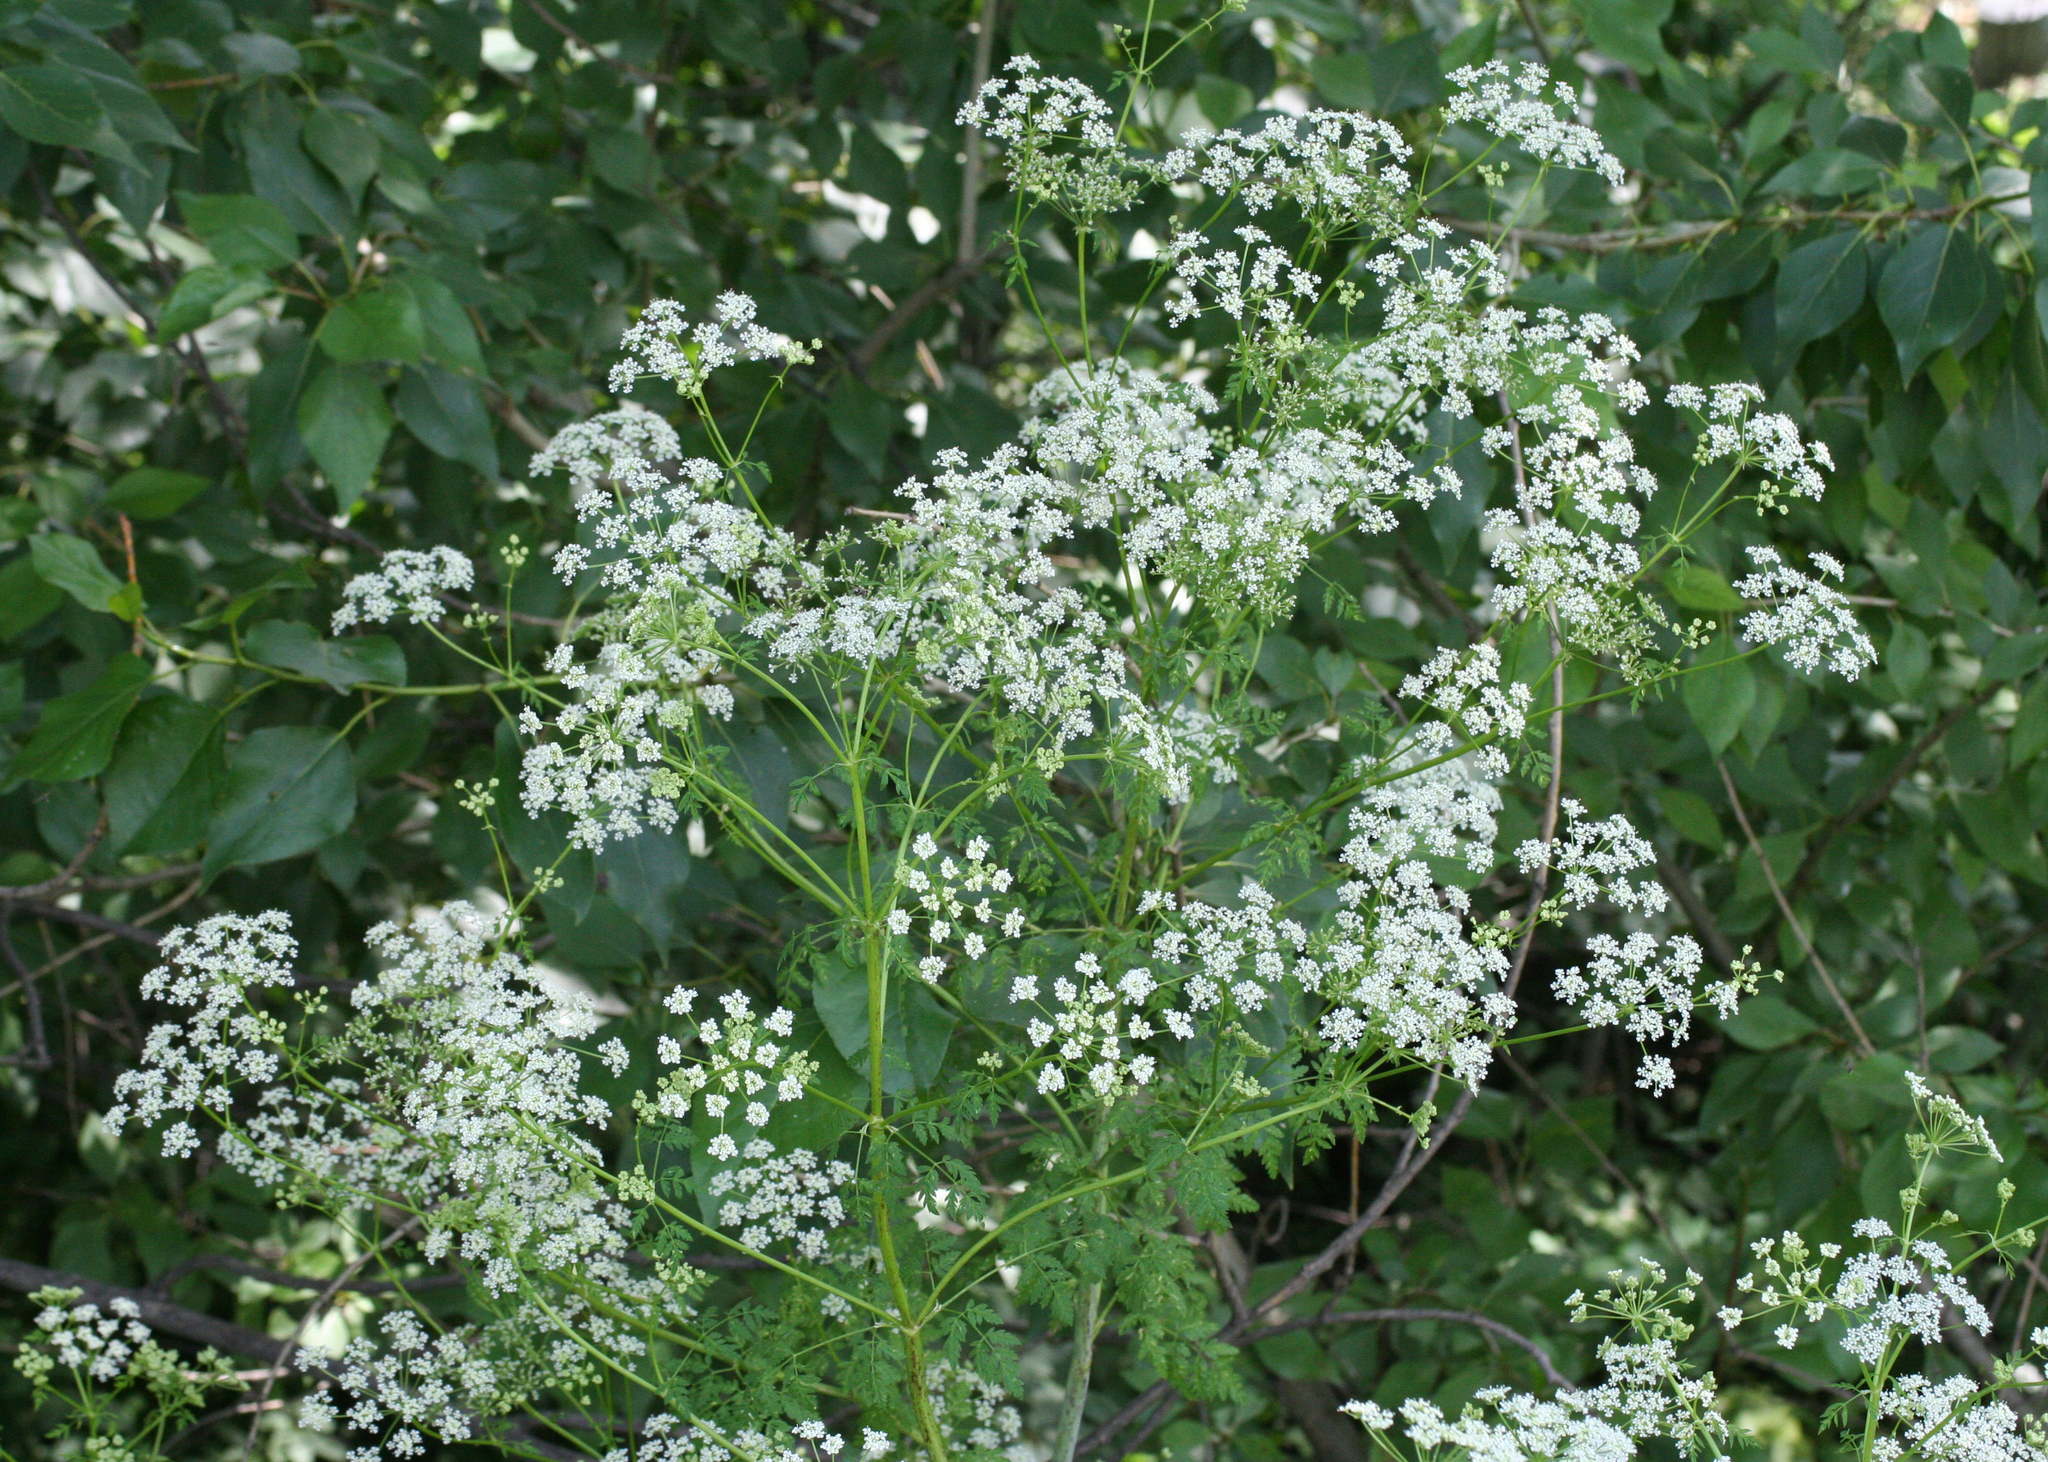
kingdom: Plantae
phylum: Tracheophyta
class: Magnoliopsida
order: Apiales
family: Apiaceae
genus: Conium
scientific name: Conium maculatum
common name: Hemlock
